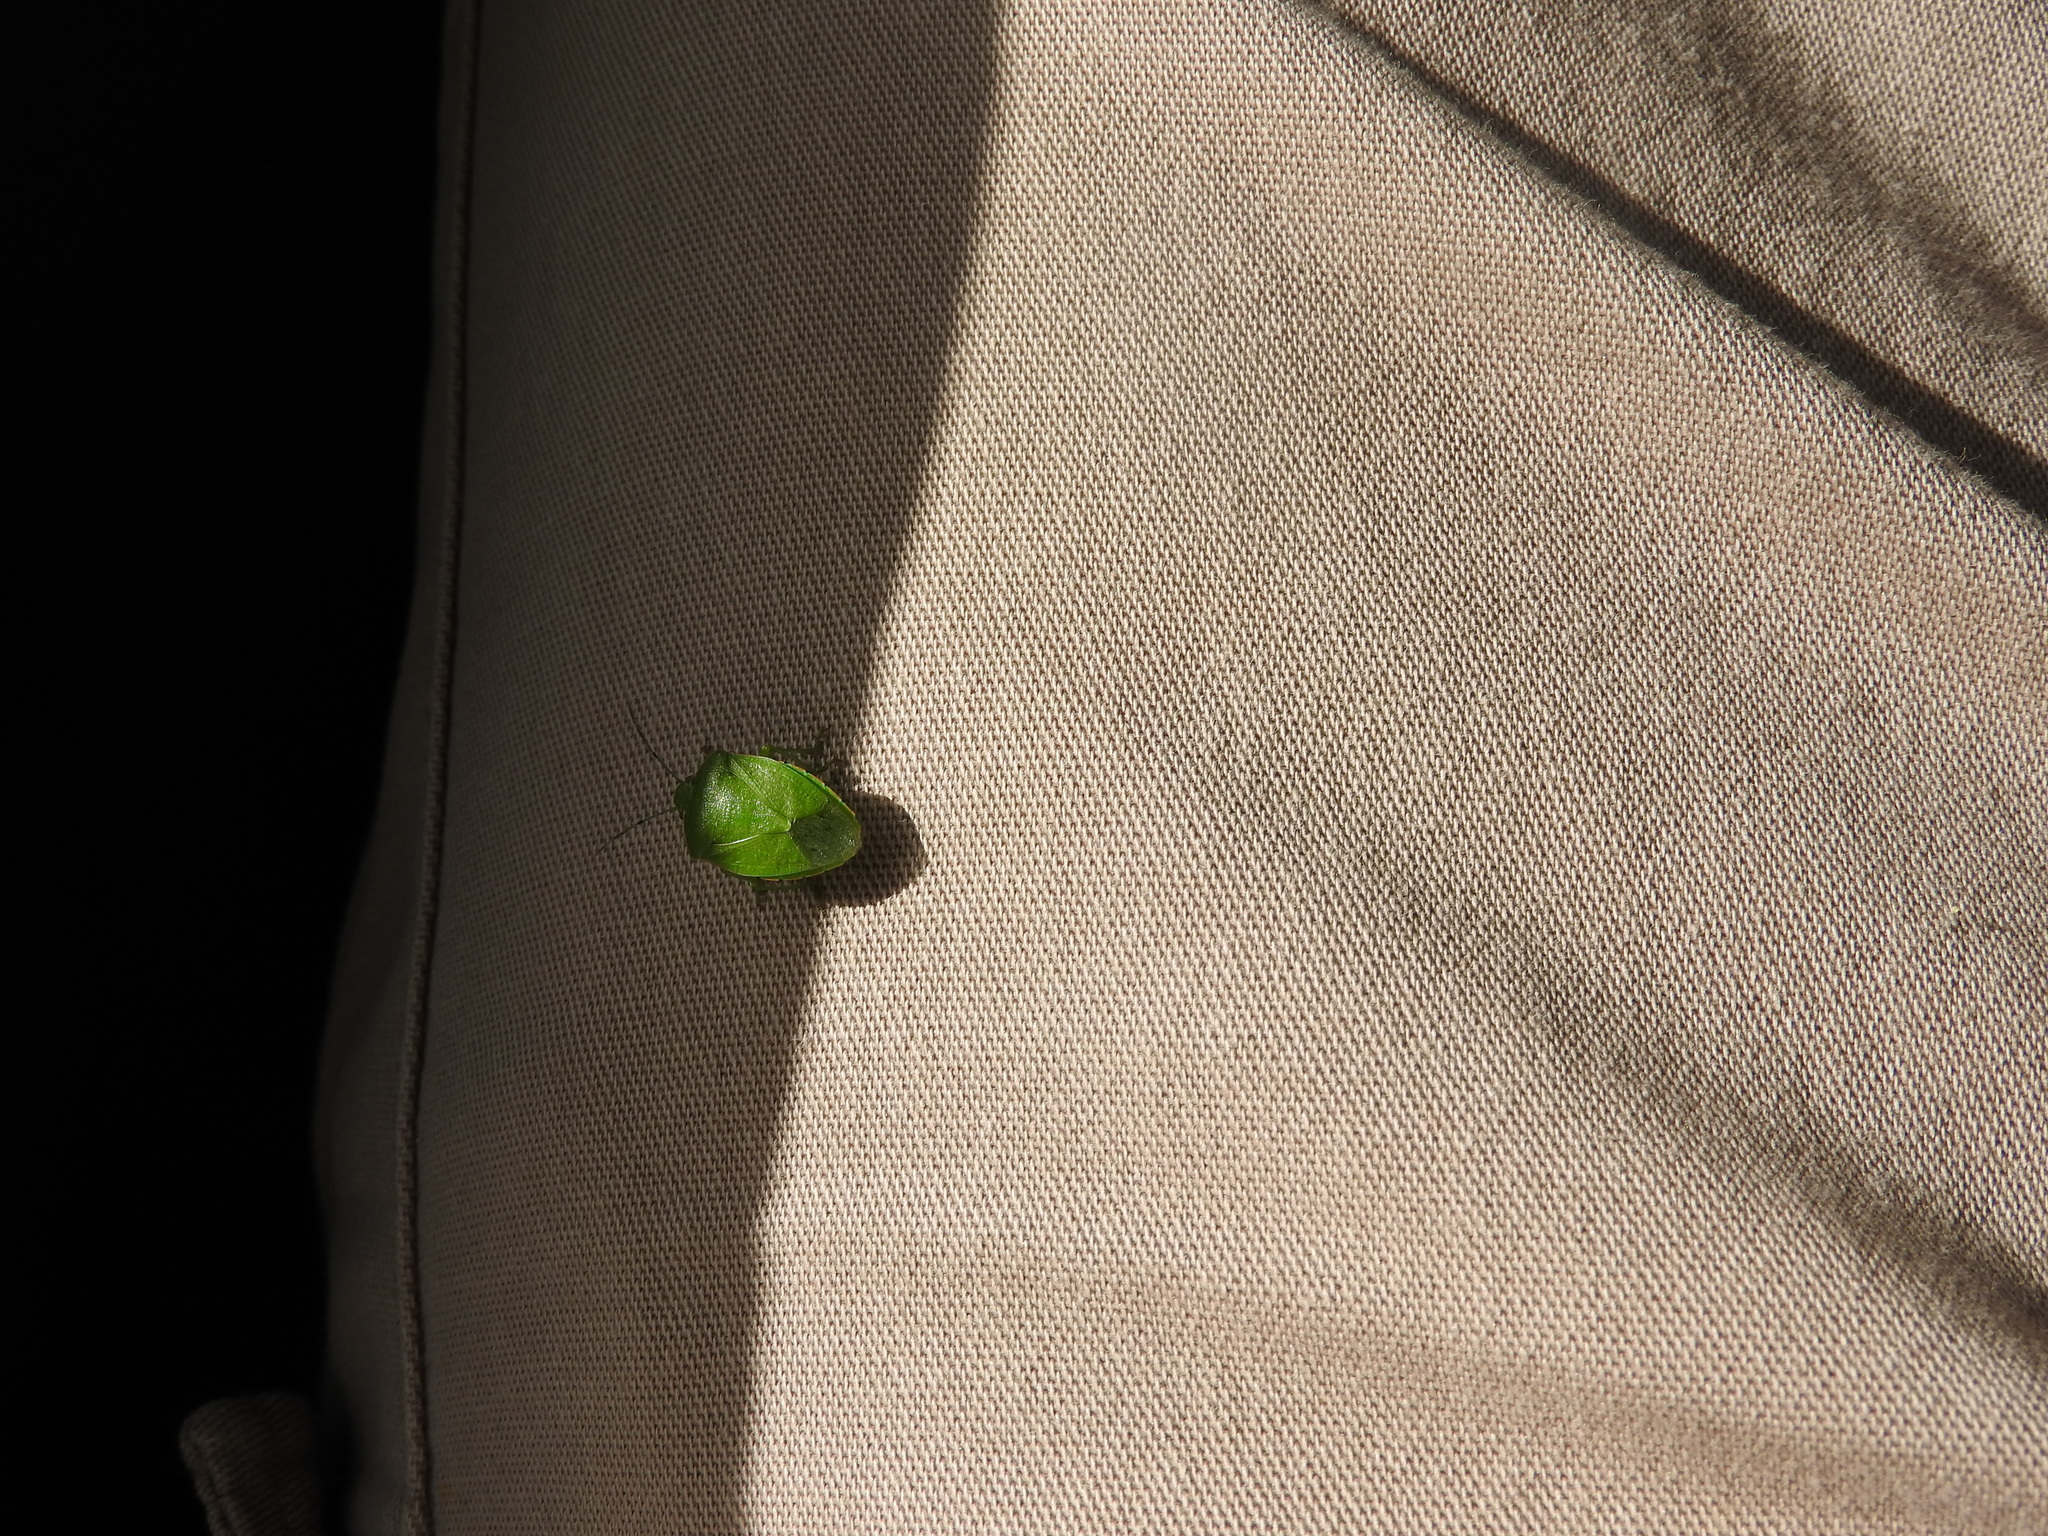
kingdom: Animalia
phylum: Arthropoda
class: Insecta
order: Hemiptera
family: Pentatomidae
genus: Acrosternum
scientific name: Acrosternum marginatum
